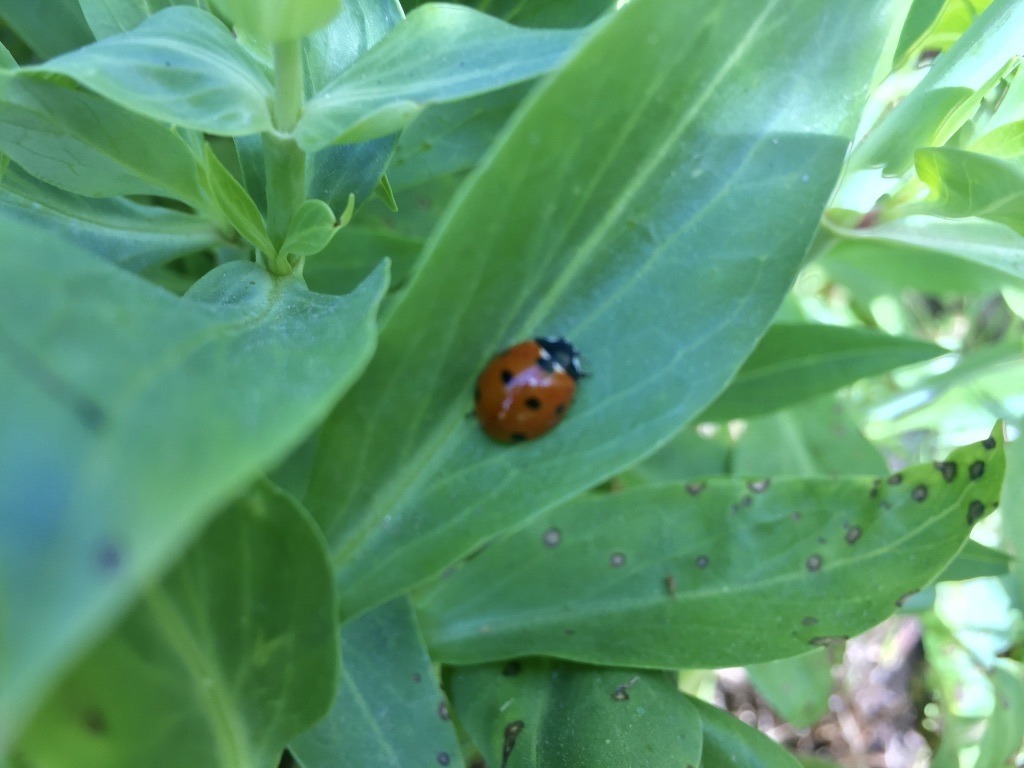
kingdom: Animalia
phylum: Arthropoda
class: Insecta
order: Coleoptera
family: Coccinellidae
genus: Coccinella
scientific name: Coccinella septempunctata
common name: Sevenspotted lady beetle
